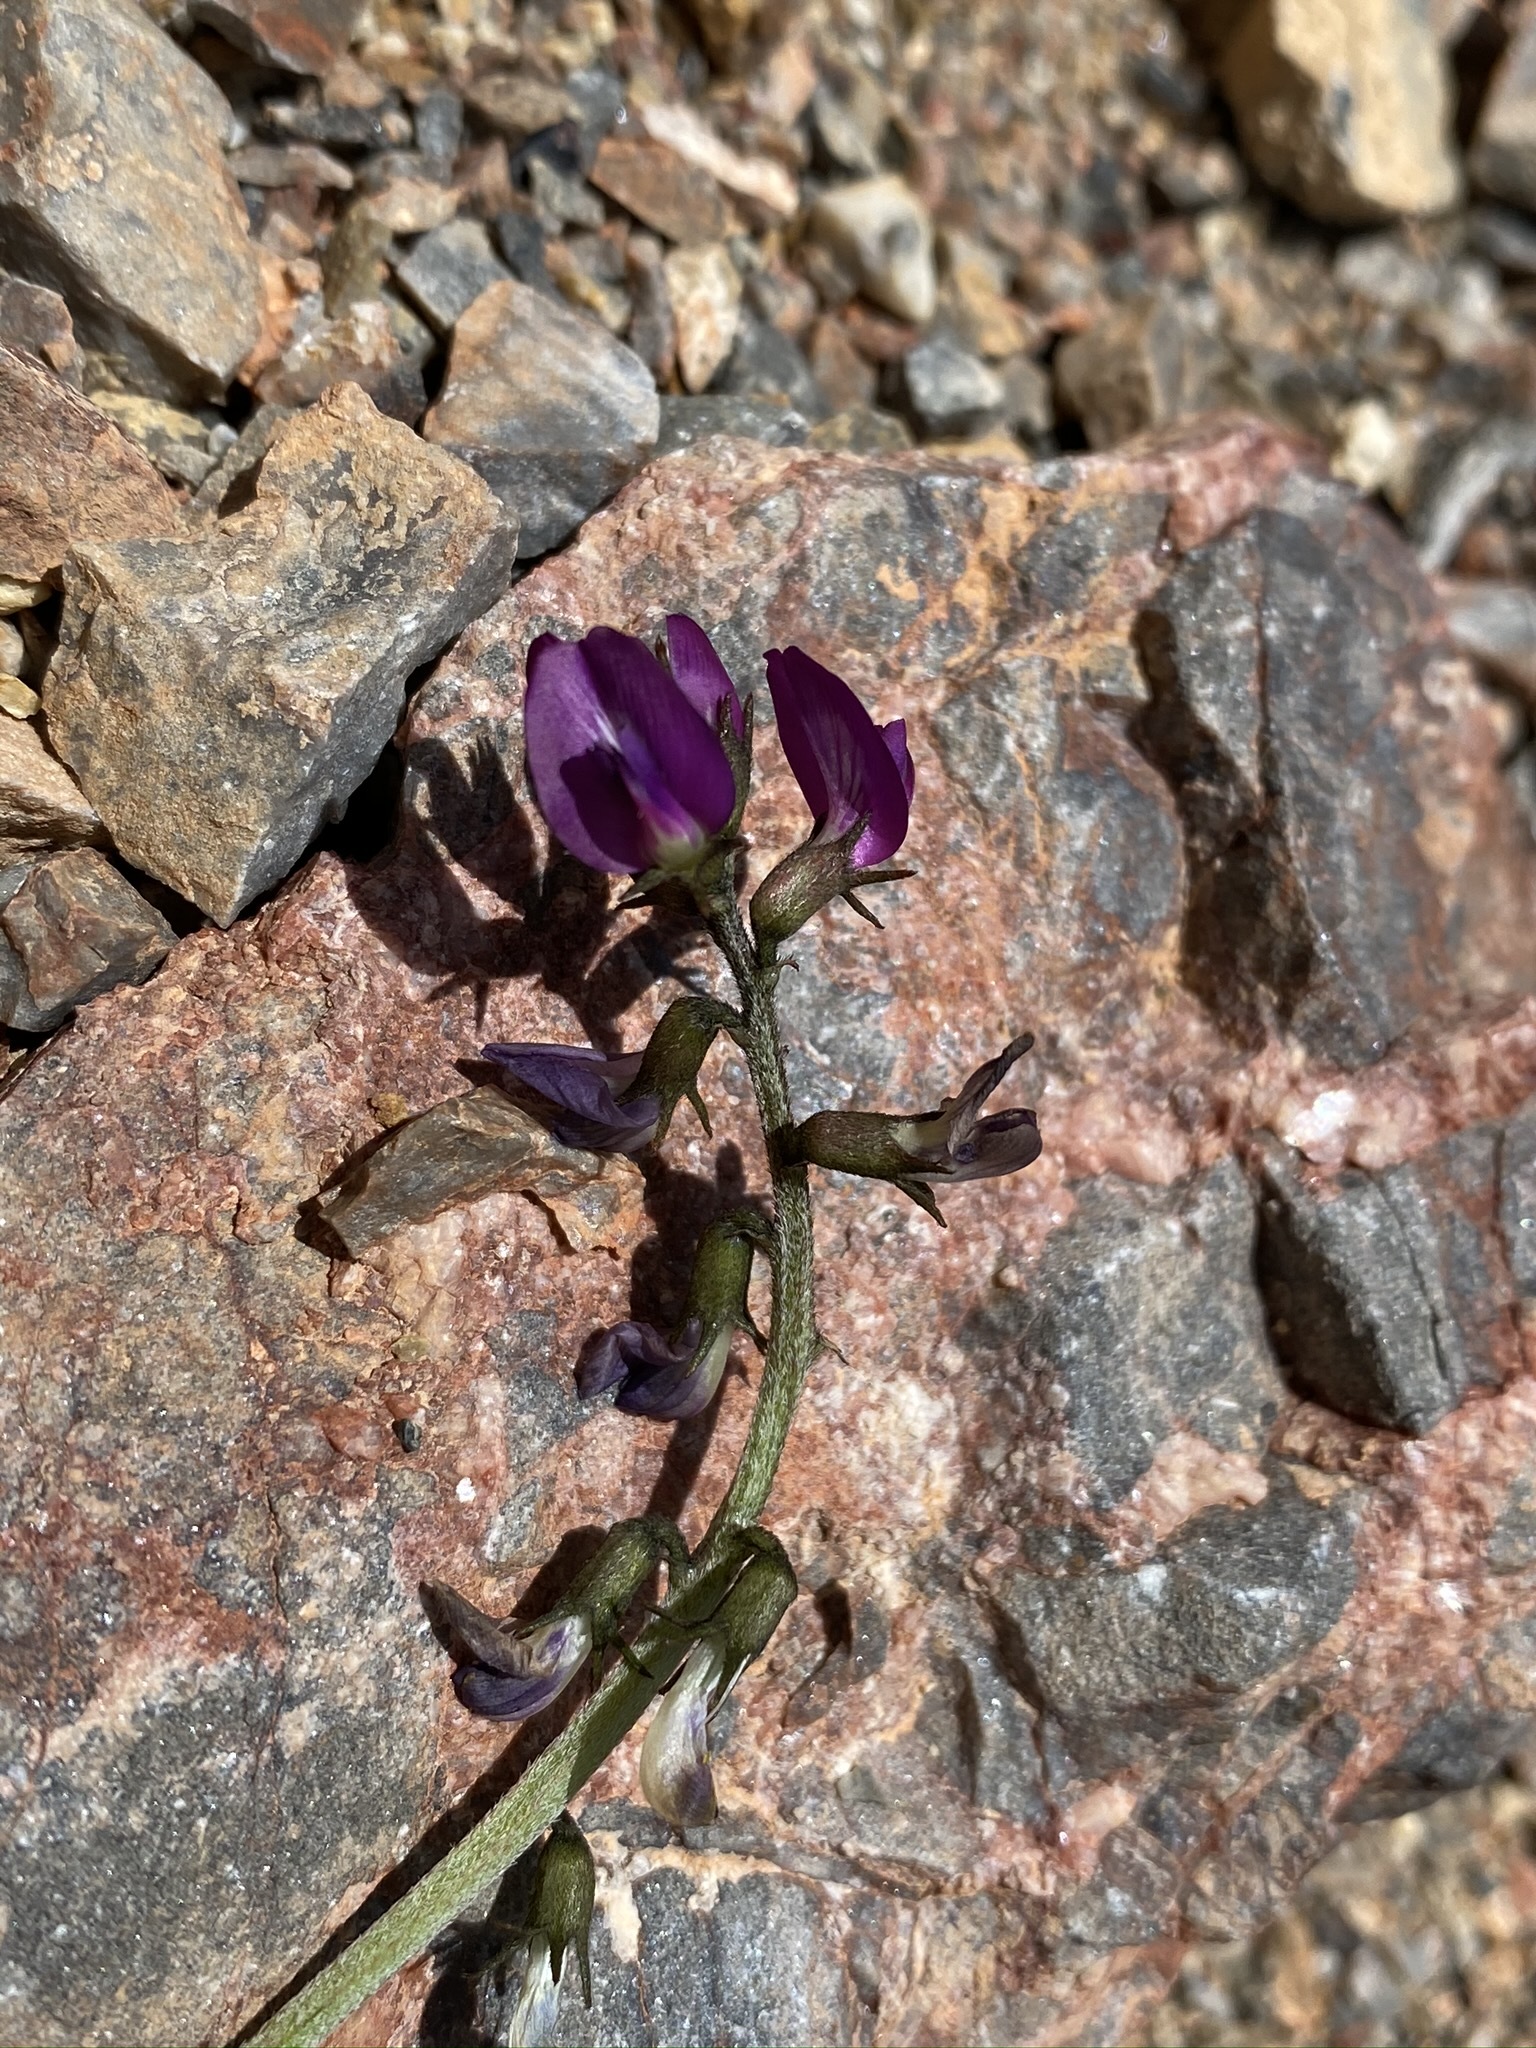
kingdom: Plantae
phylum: Tracheophyta
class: Magnoliopsida
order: Fabales
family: Fabaceae
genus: Astragalus
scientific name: Astragalus mohavensis
